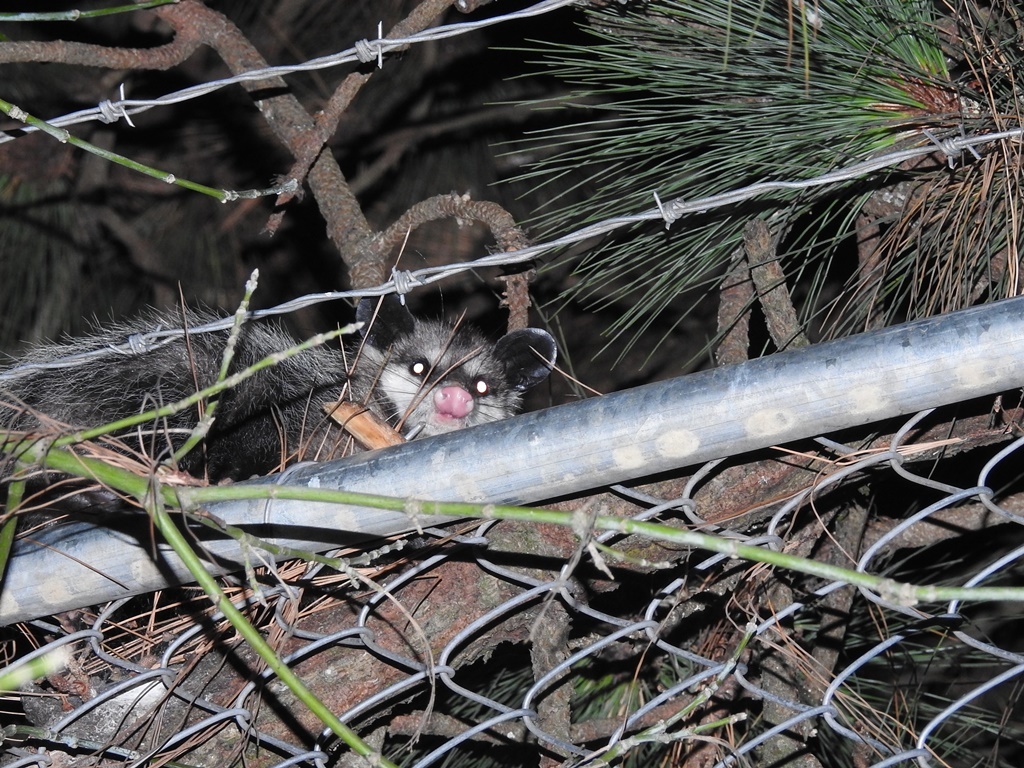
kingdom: Animalia
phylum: Chordata
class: Mammalia
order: Didelphimorphia
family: Didelphidae
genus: Didelphis
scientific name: Didelphis virginiana
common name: Virginia opossum
